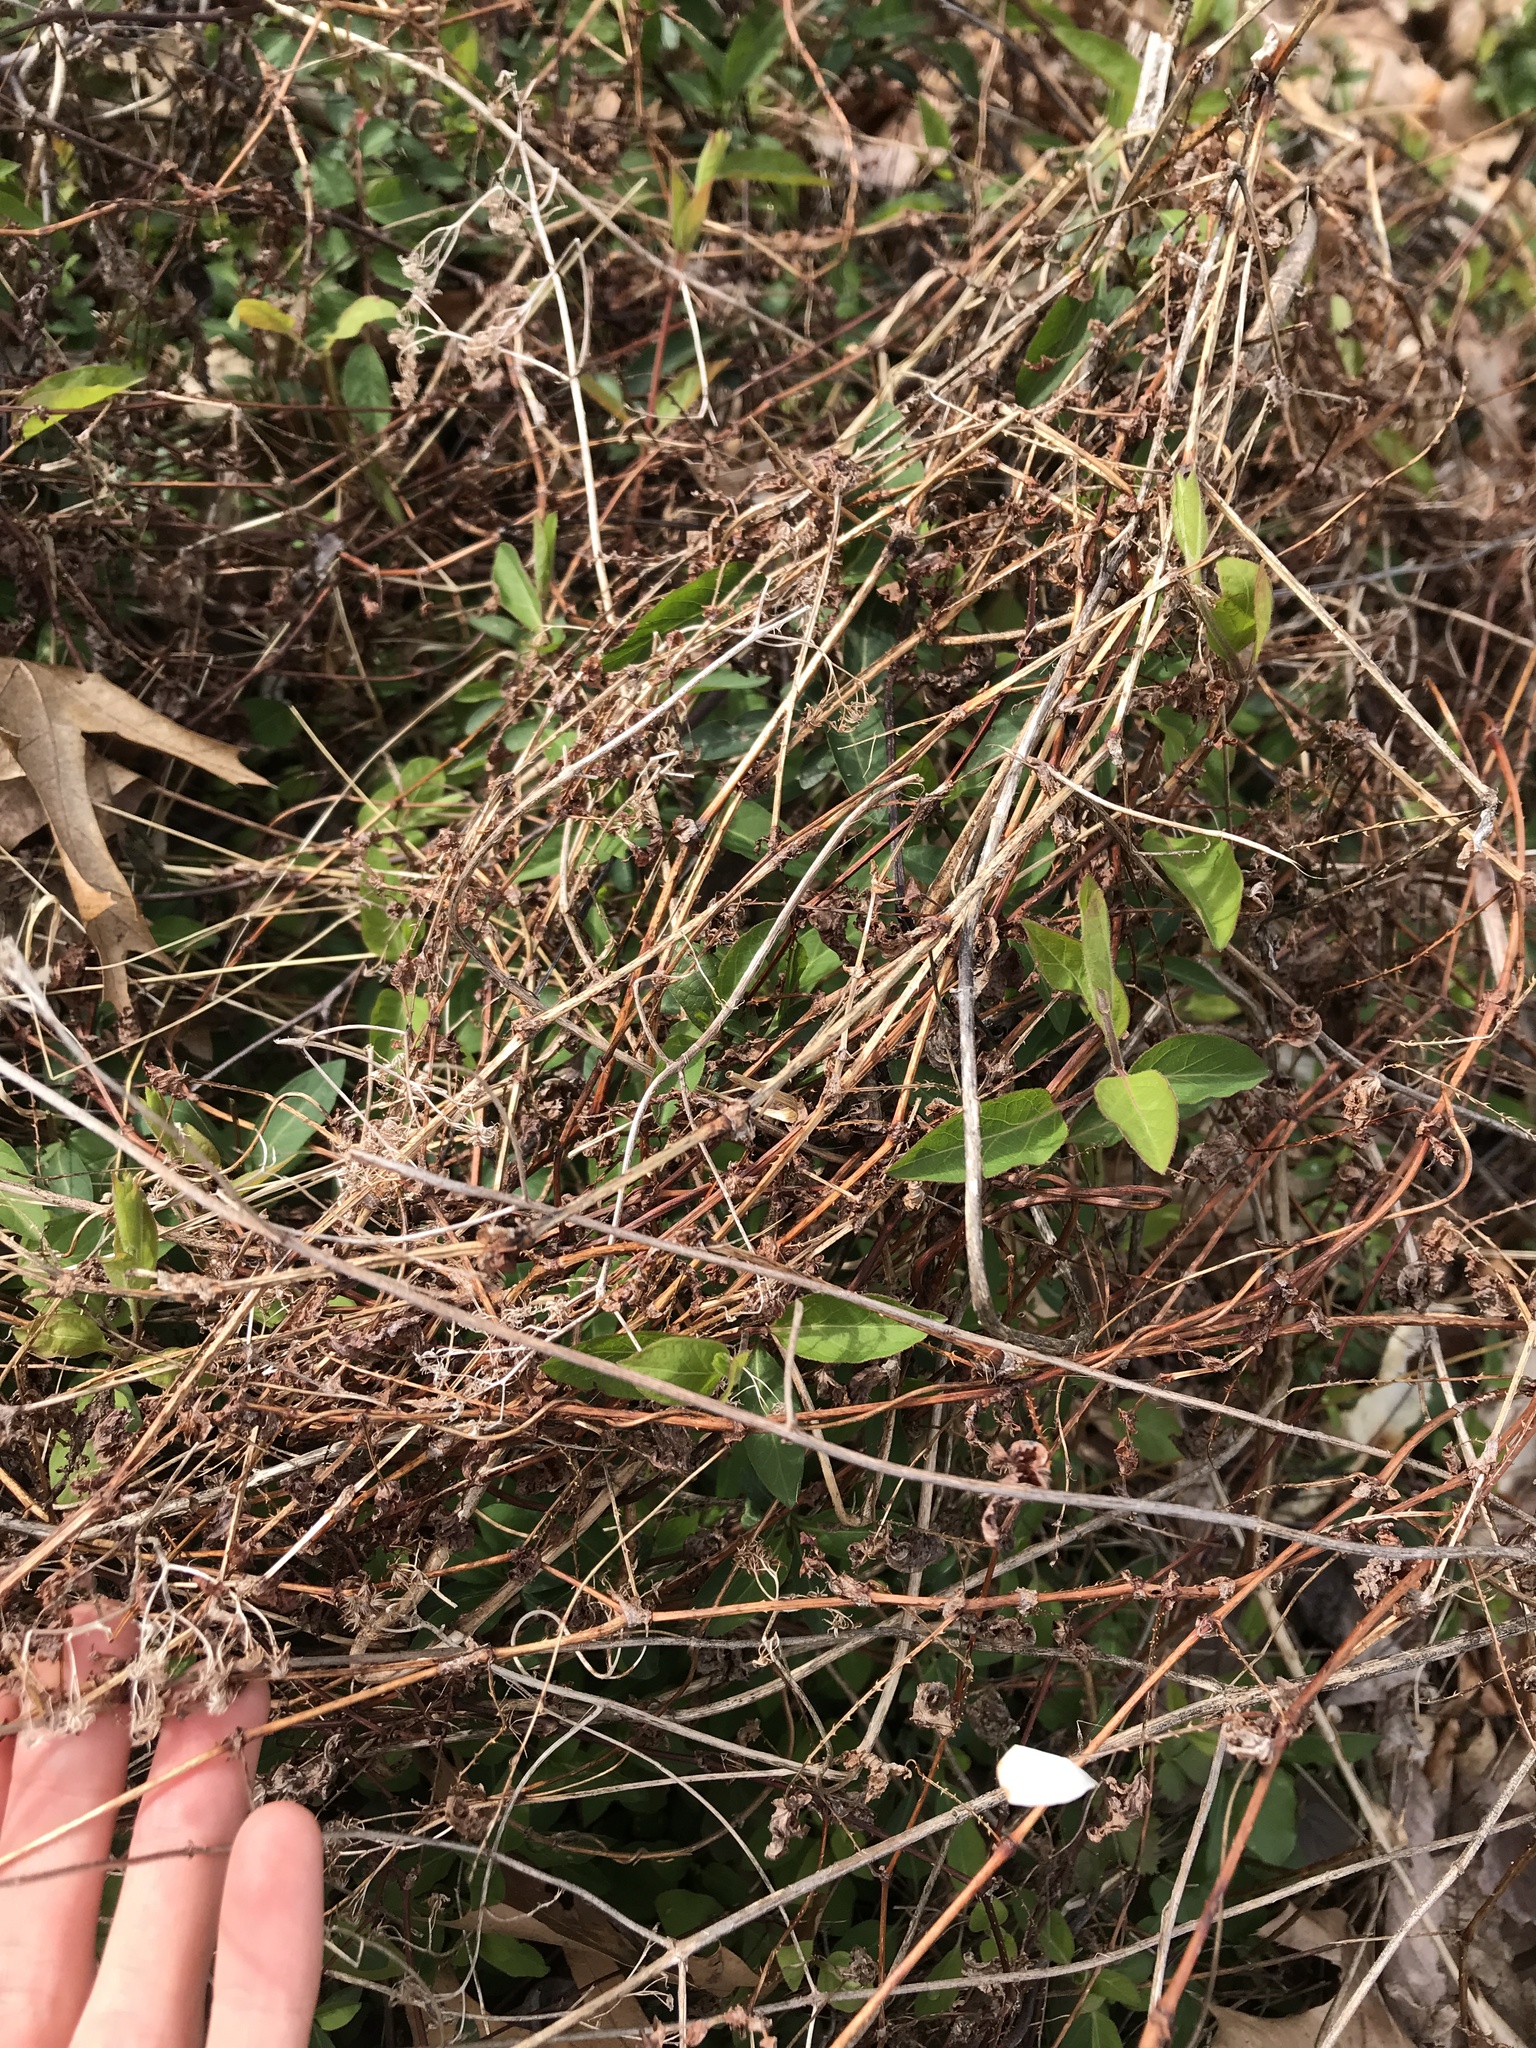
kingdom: Plantae
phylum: Tracheophyta
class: Magnoliopsida
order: Caryophyllales
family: Polygonaceae
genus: Persicaria
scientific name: Persicaria perfoliata
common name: Asiatic tearthumb
